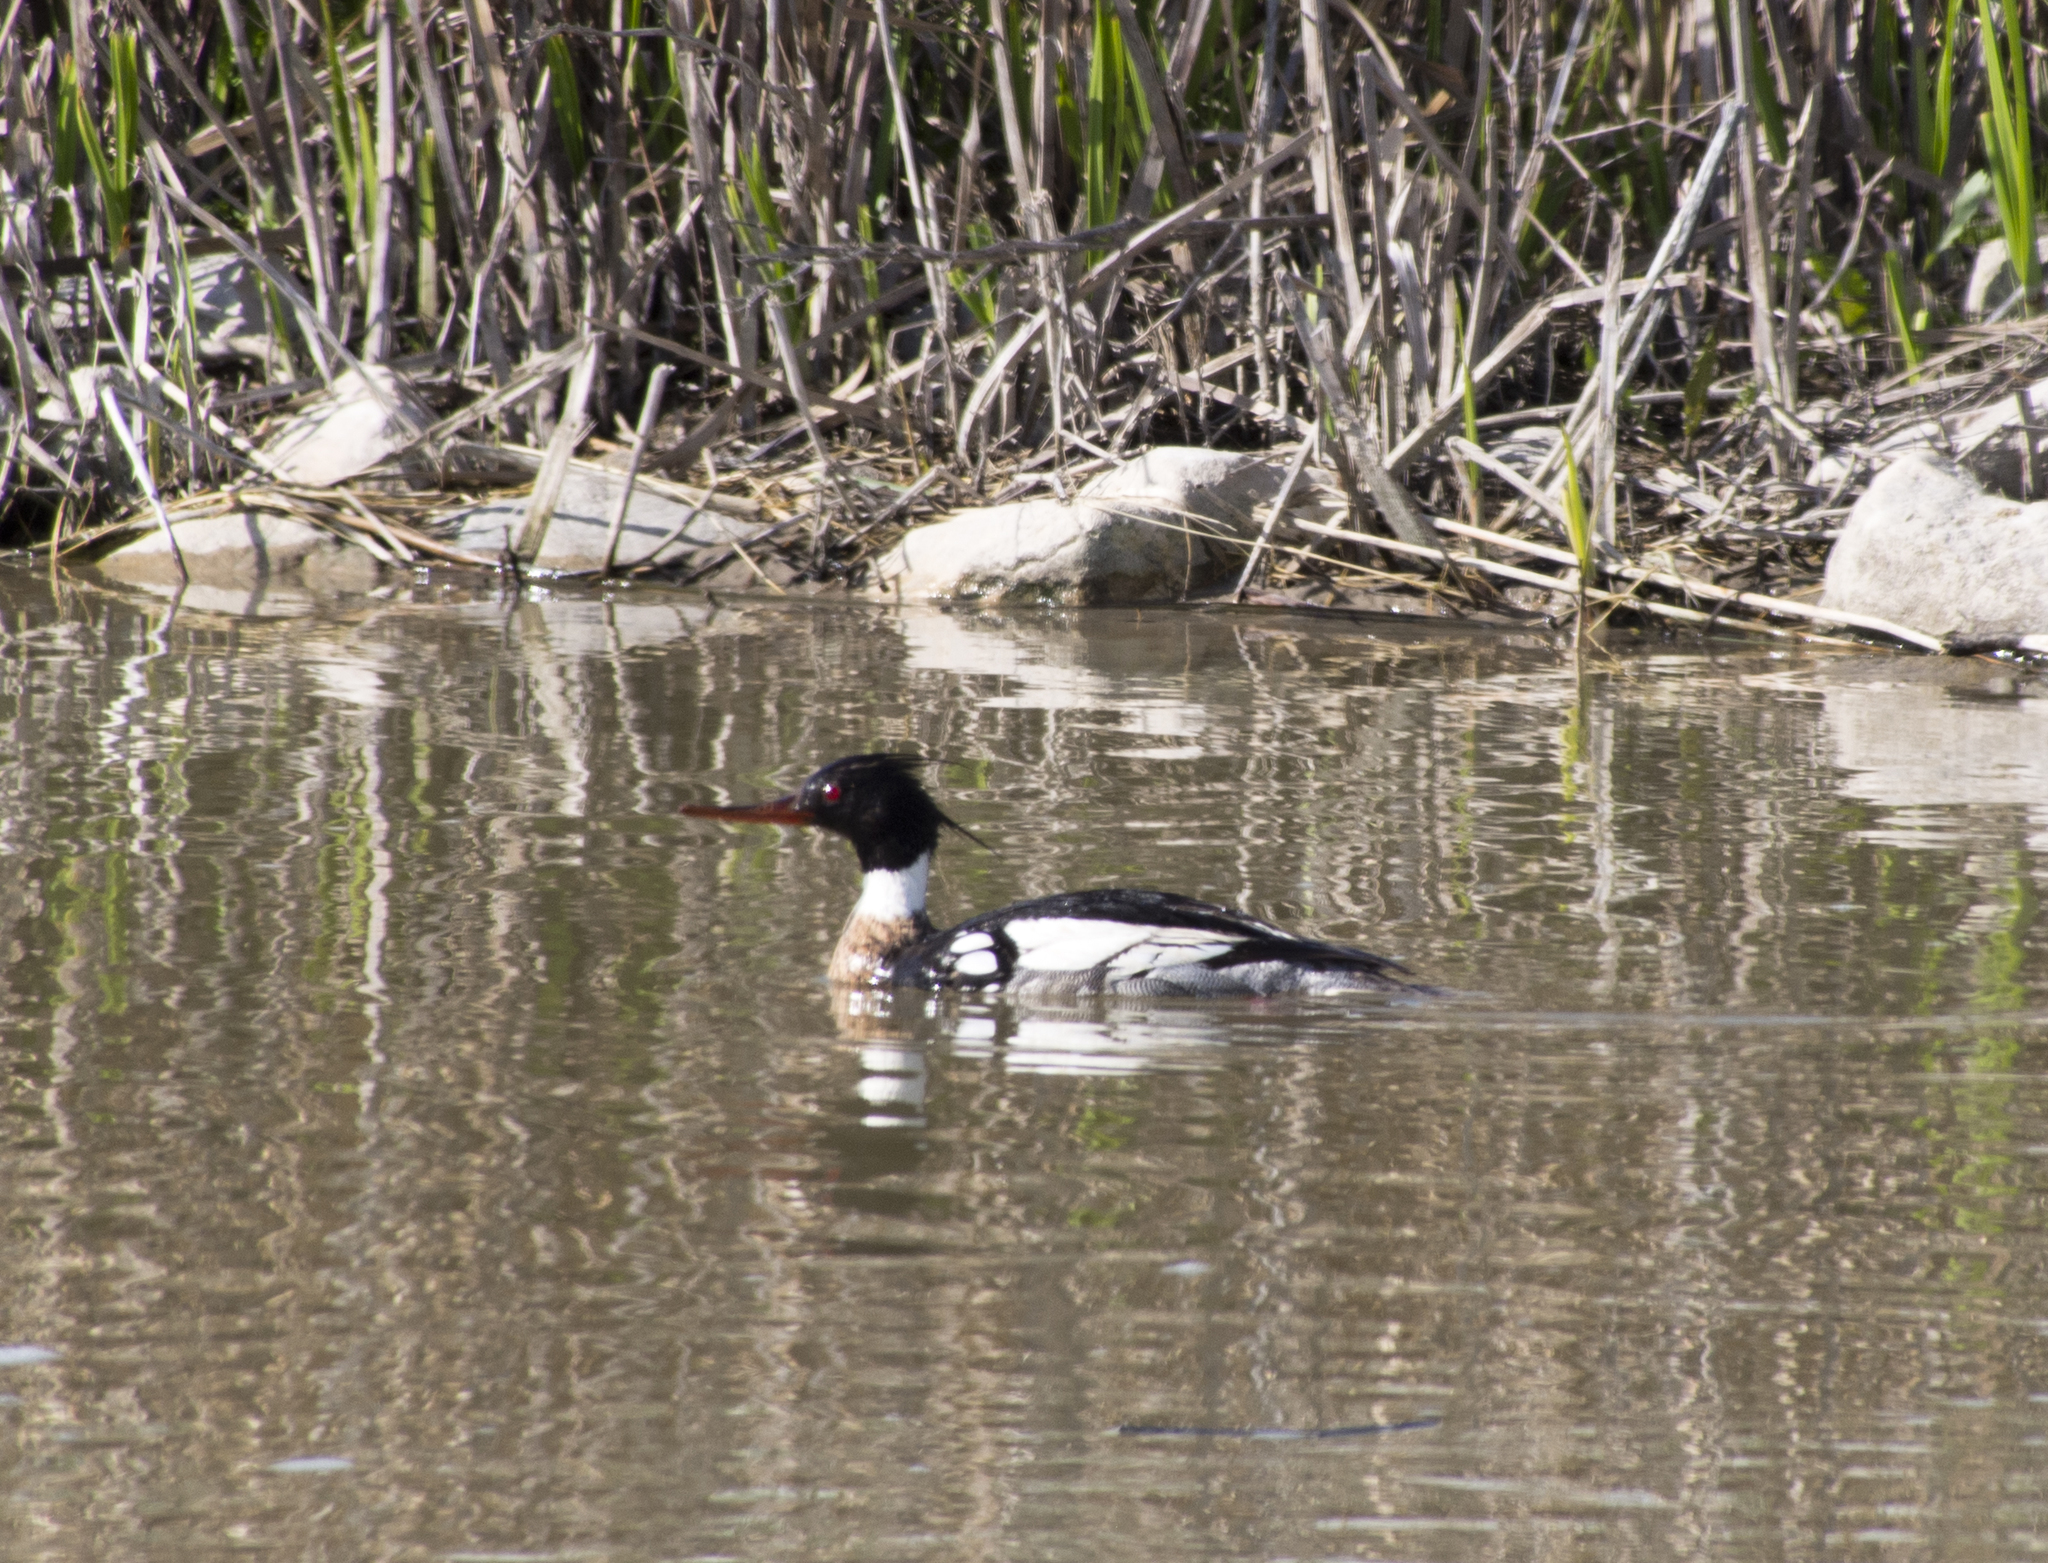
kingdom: Animalia
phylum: Chordata
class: Aves
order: Anseriformes
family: Anatidae
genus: Mergus
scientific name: Mergus serrator
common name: Red-breasted merganser
